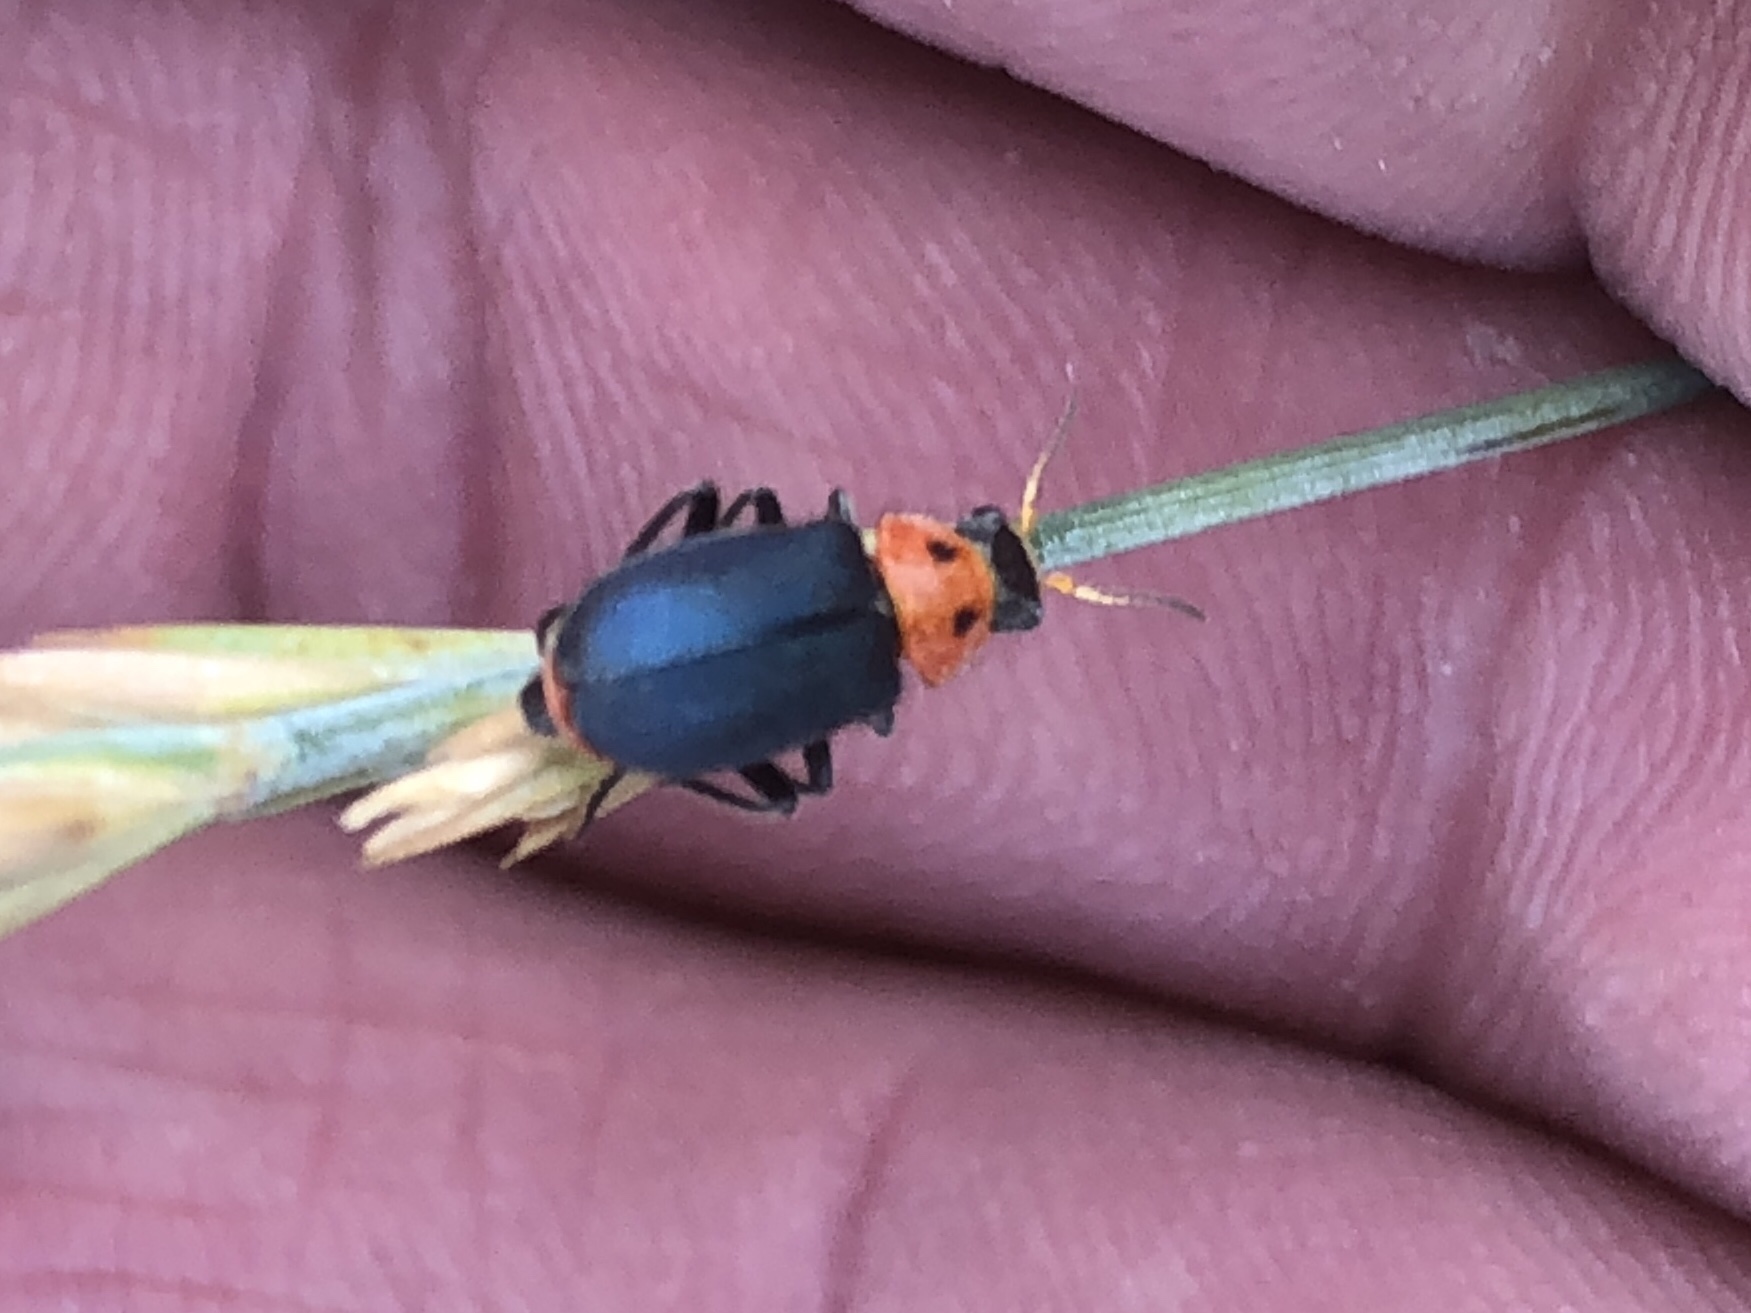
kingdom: Animalia
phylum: Arthropoda
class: Insecta
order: Coleoptera
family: Melyridae
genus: Collops
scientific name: Collops bipunctatus
